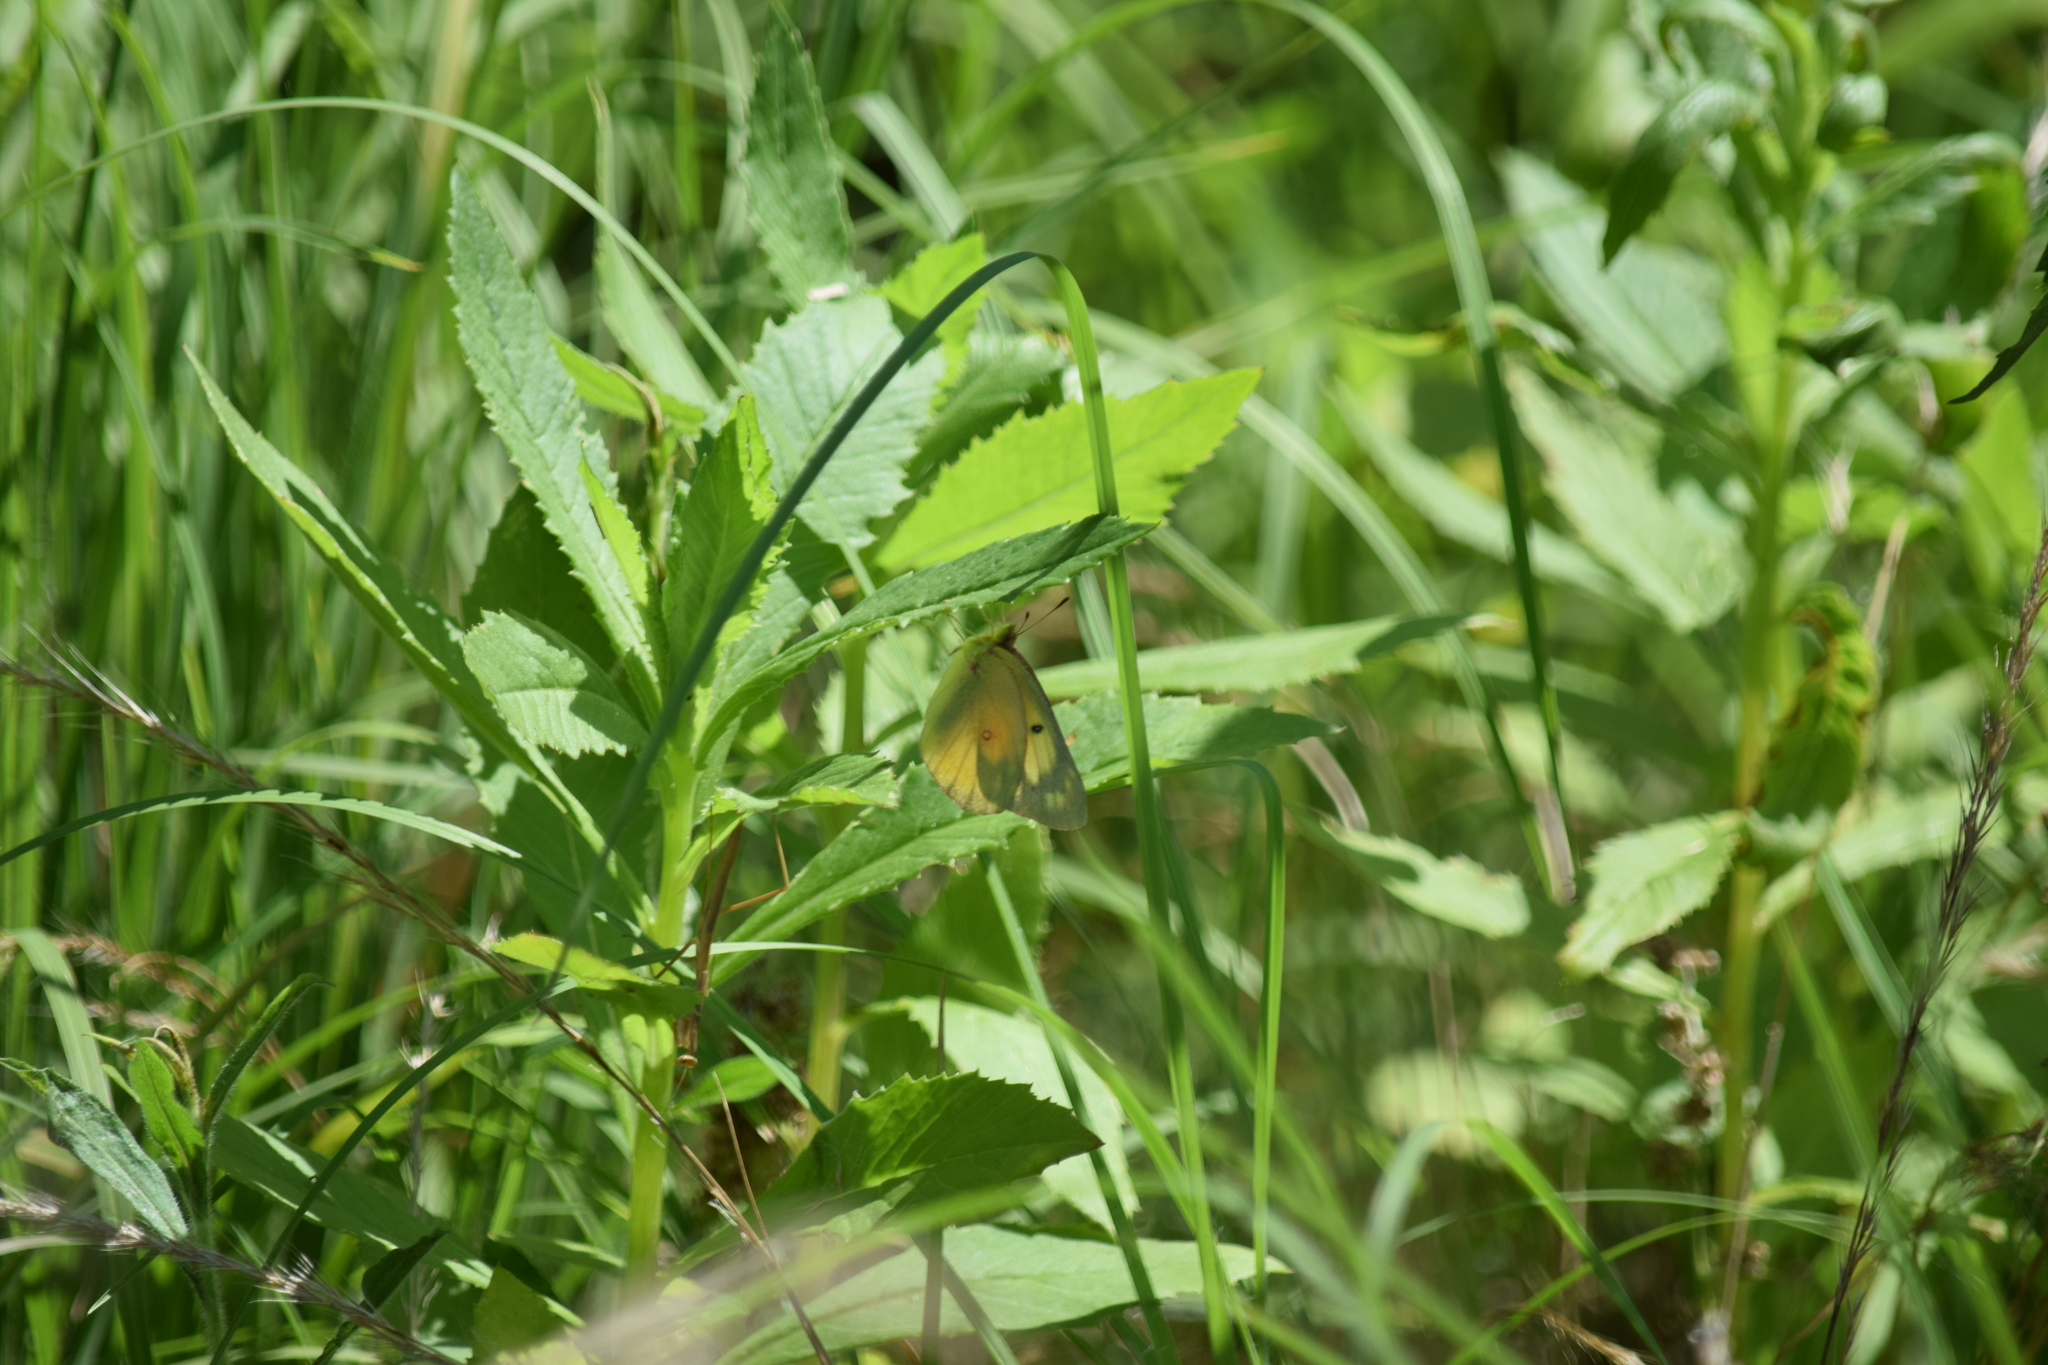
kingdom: Animalia
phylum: Arthropoda
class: Insecta
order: Lepidoptera
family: Pieridae
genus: Colias
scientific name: Colias eurytheme
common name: Alfalfa butterfly
